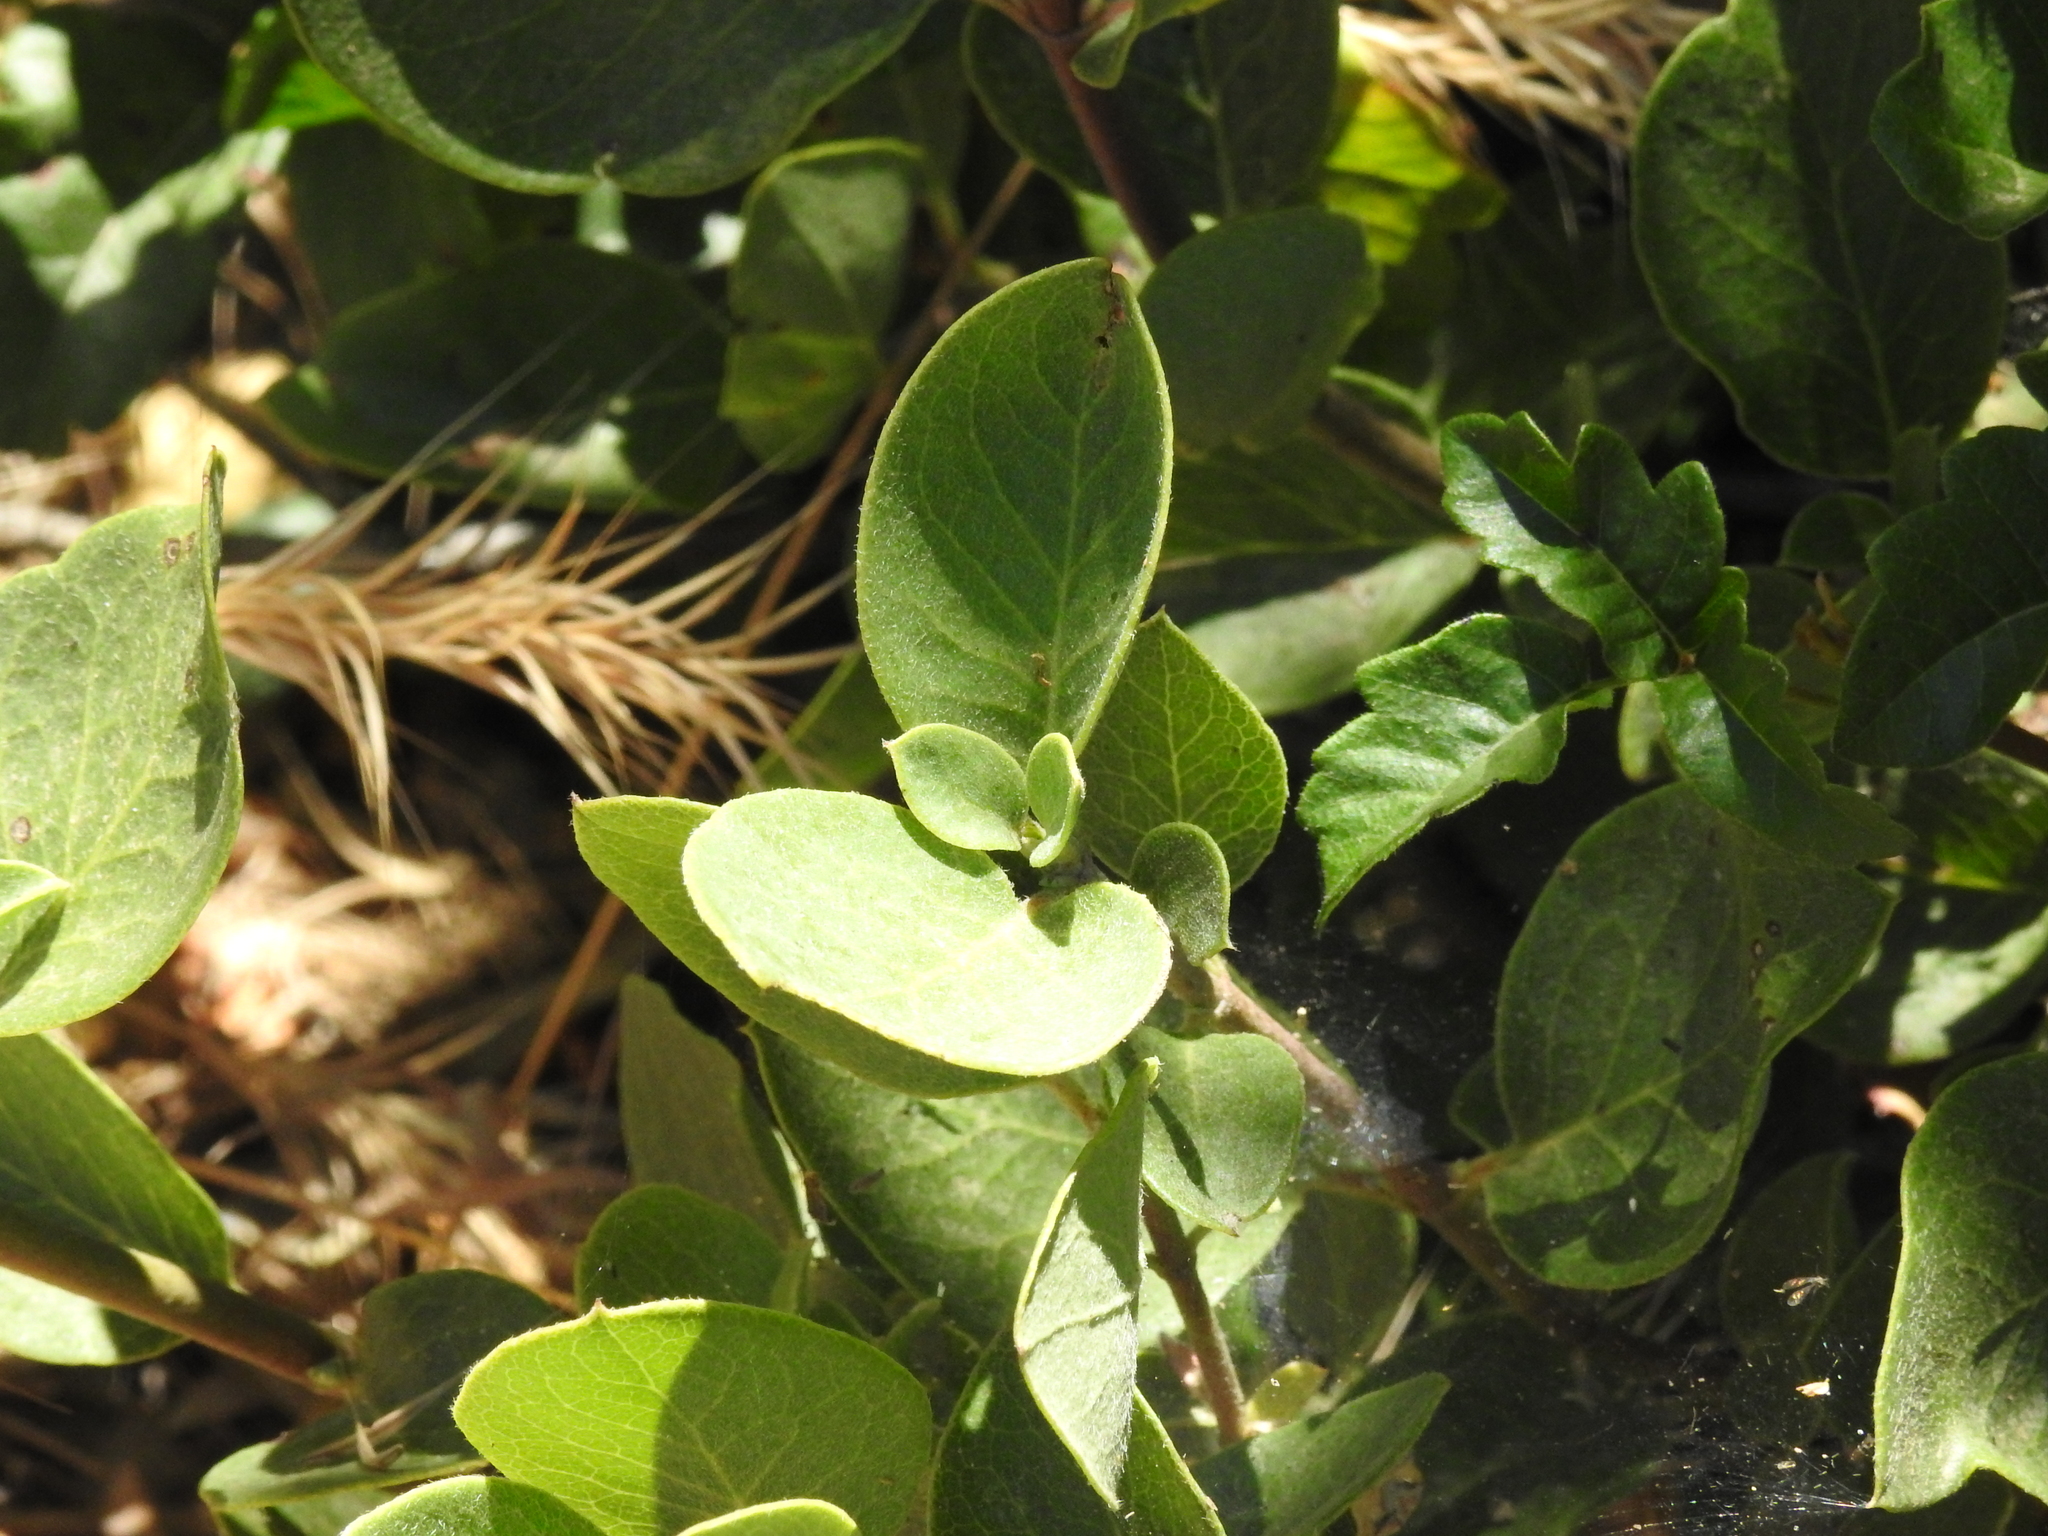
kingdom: Plantae
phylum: Tracheophyta
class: Magnoliopsida
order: Garryales
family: Garryaceae
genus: Garrya
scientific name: Garrya flavescens
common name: Ashy silk-tassel
